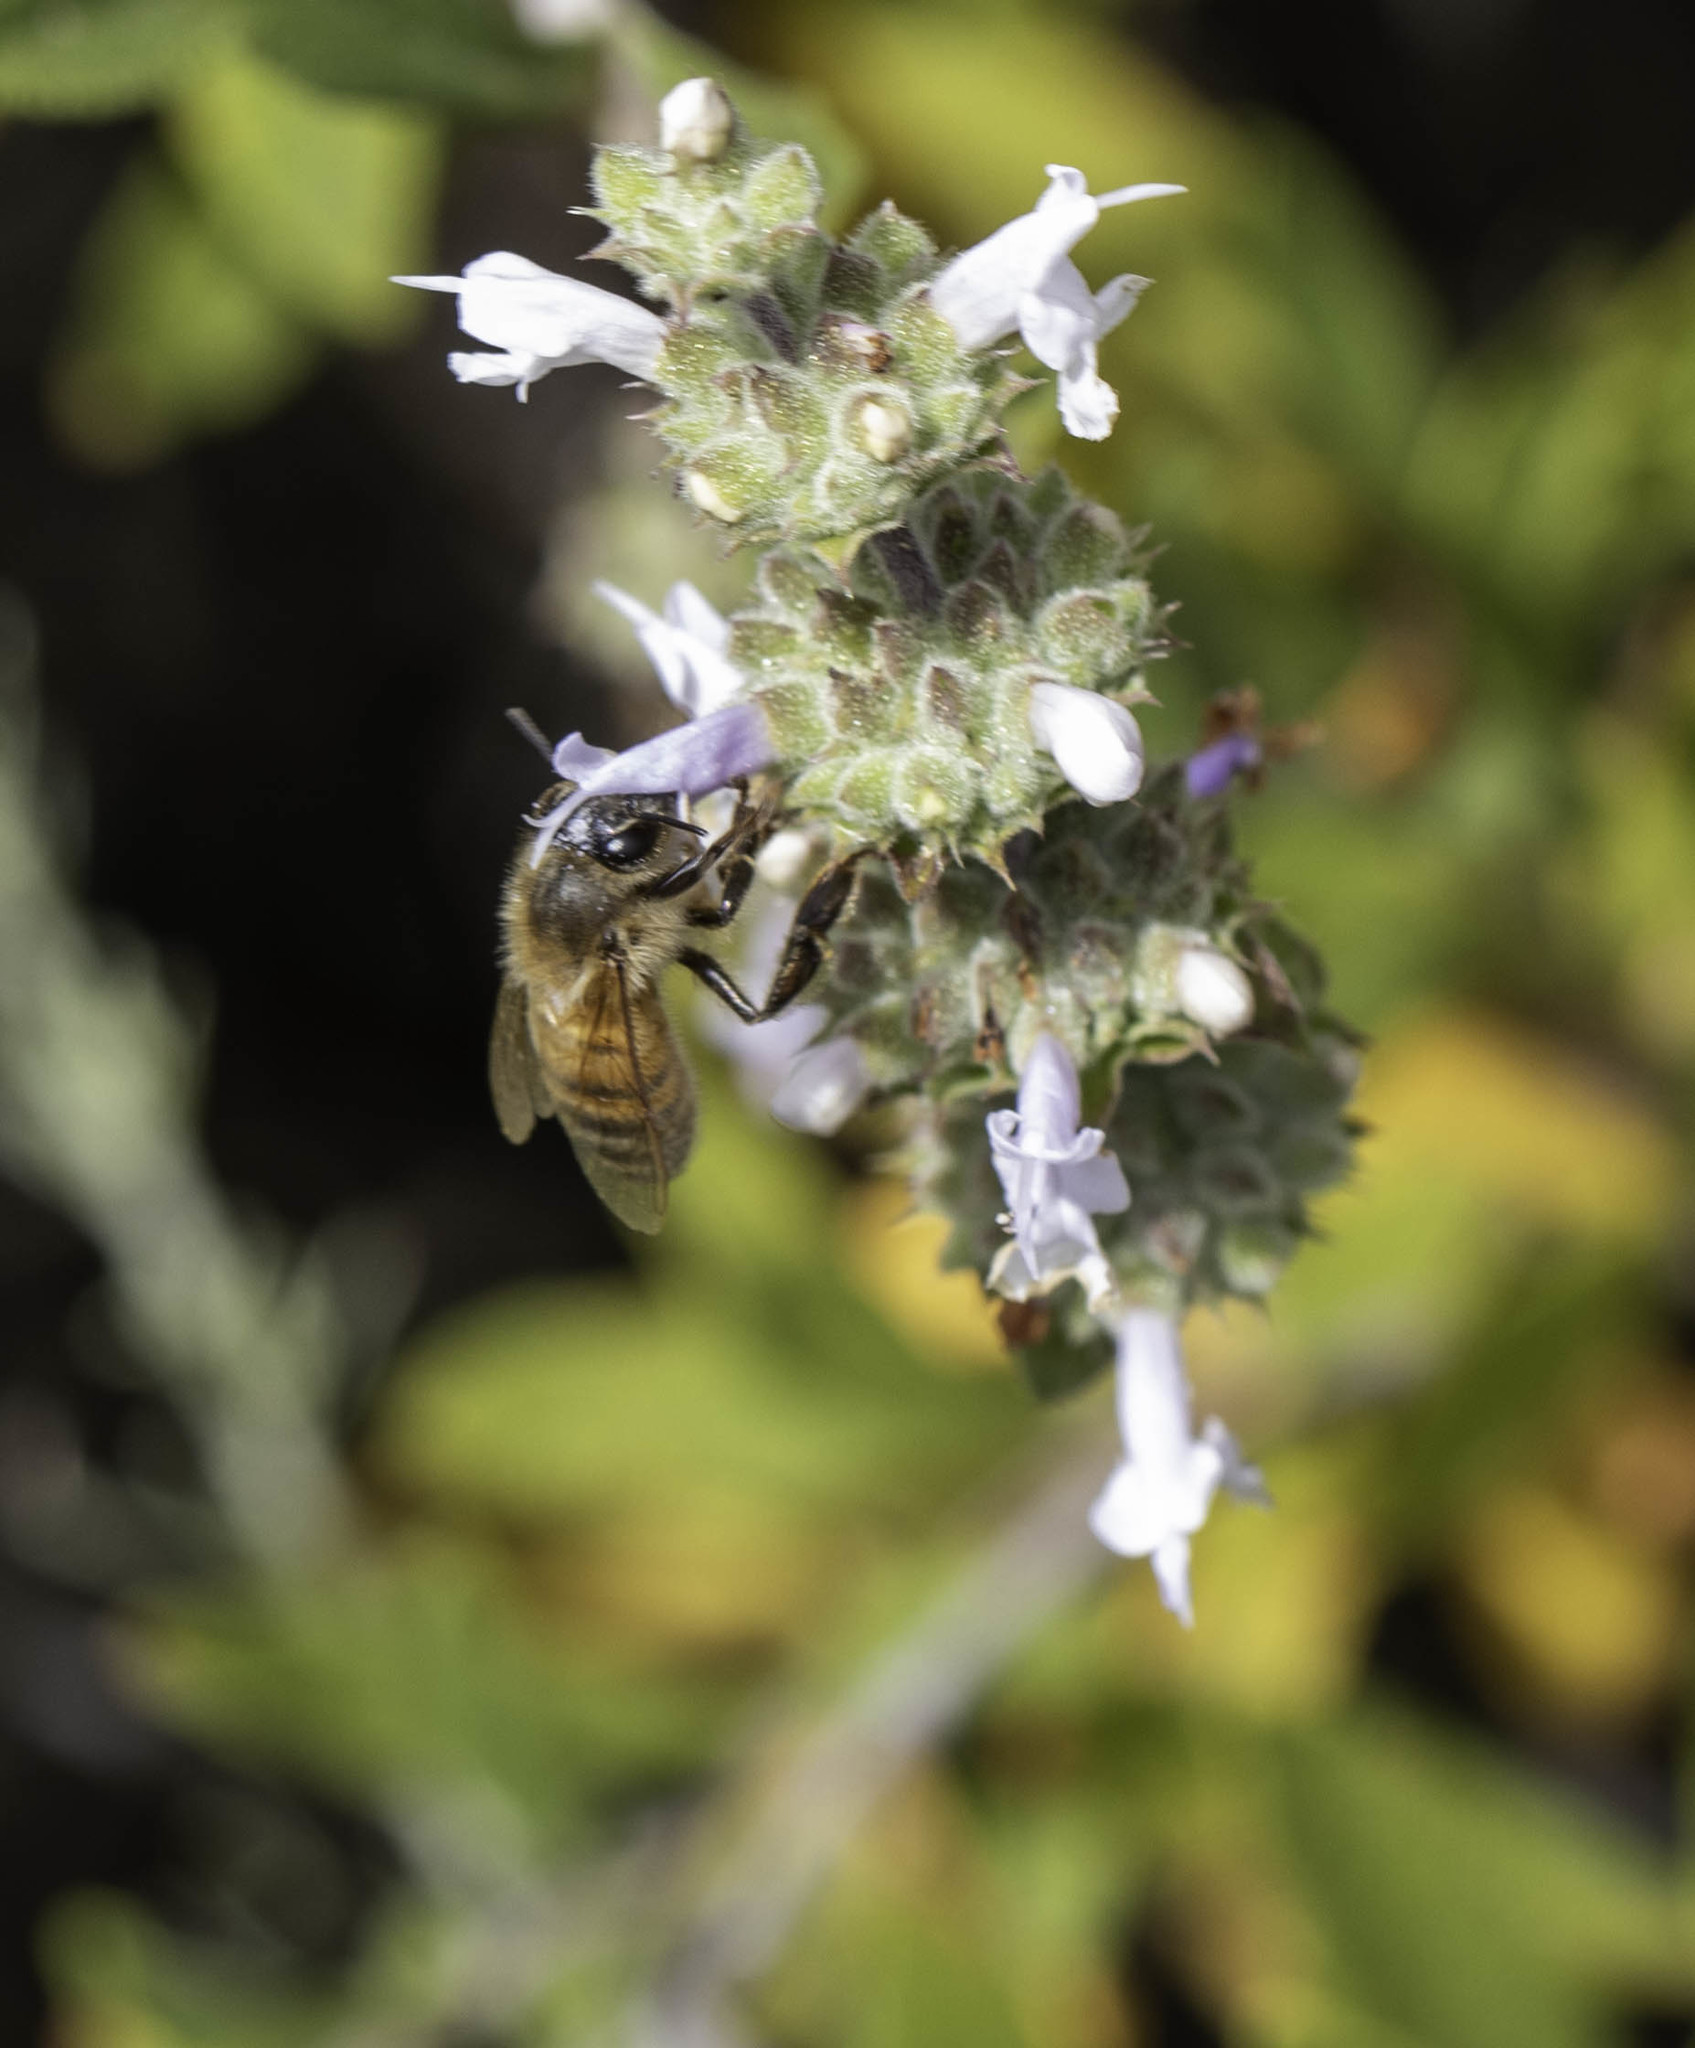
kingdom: Animalia
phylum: Arthropoda
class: Insecta
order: Hymenoptera
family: Apidae
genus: Apis
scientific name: Apis mellifera
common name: Honey bee
